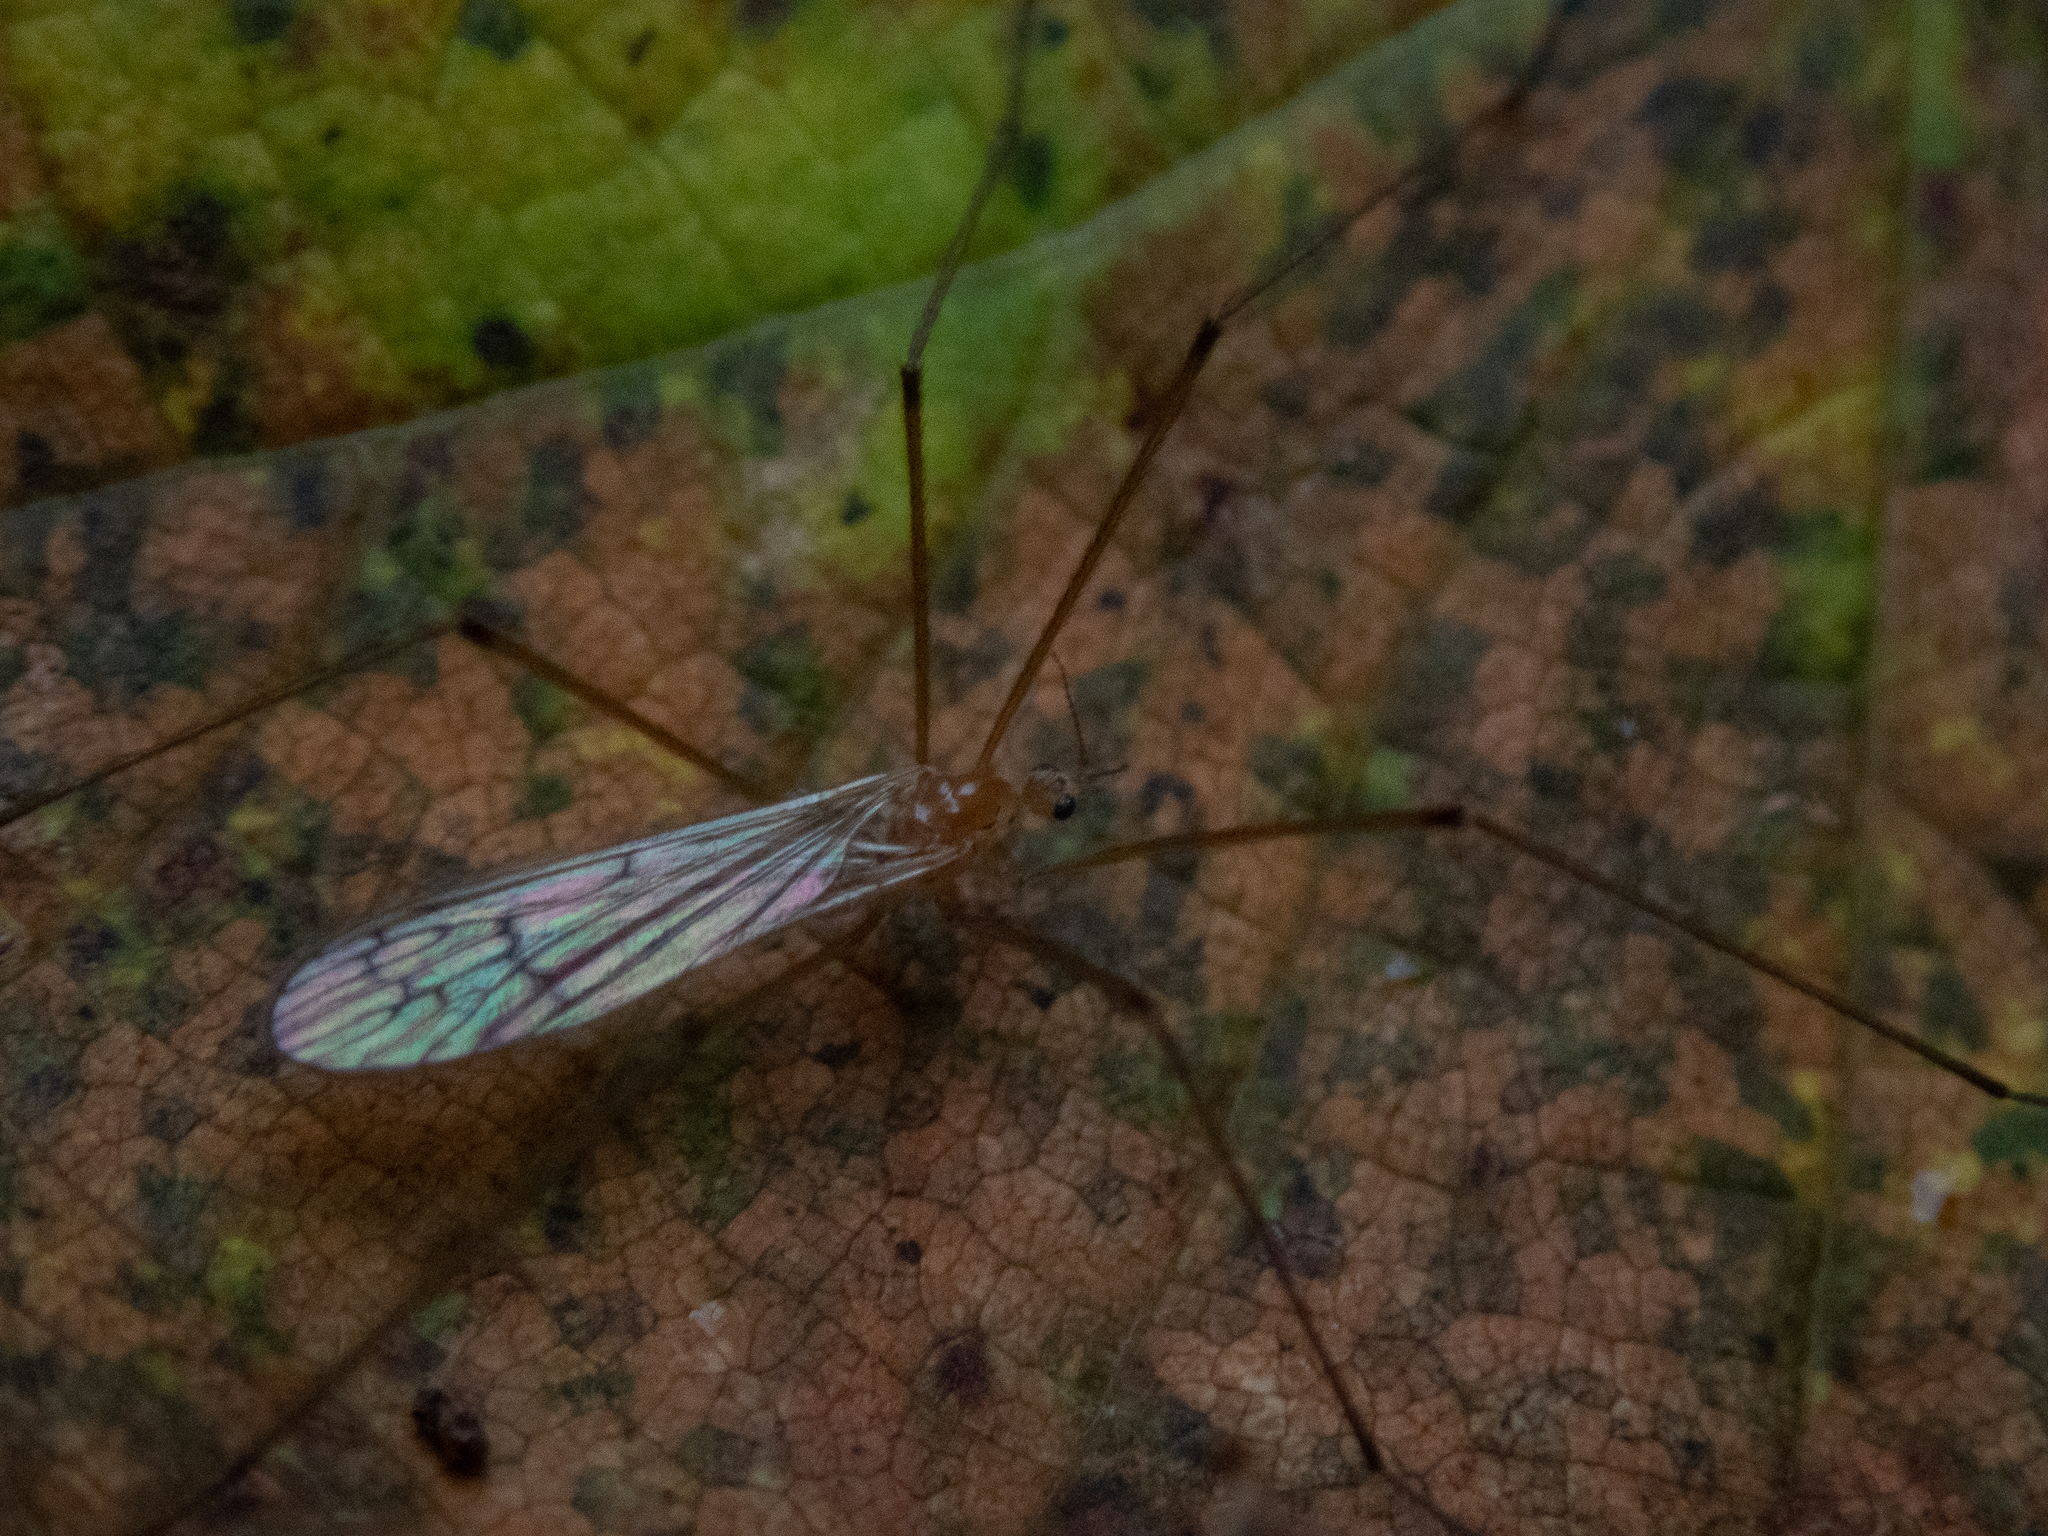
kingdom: Animalia
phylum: Arthropoda
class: Insecta
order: Diptera
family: Limoniidae
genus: Cladura
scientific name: Cladura flavoferruginea
